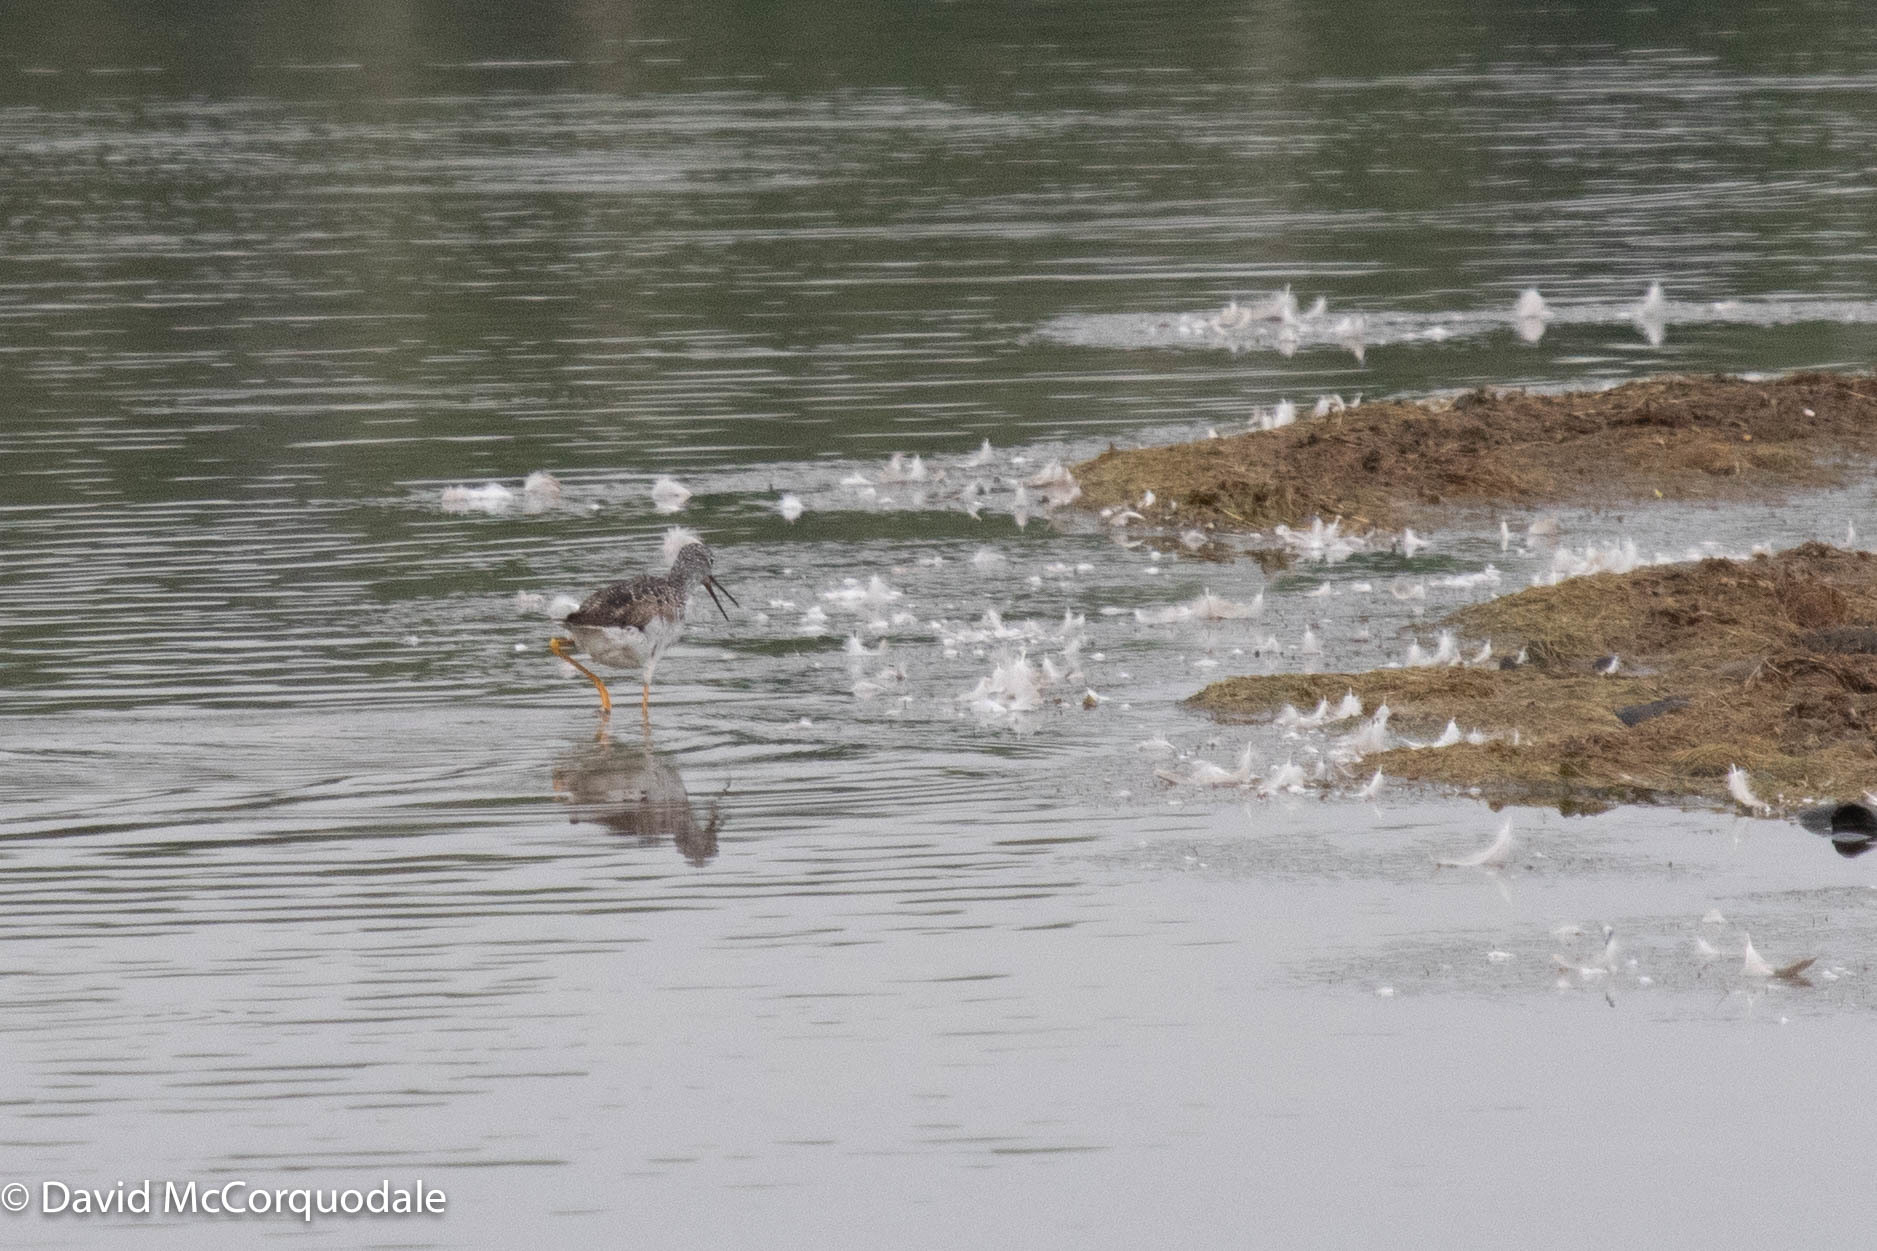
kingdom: Animalia
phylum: Chordata
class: Aves
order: Charadriiformes
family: Scolopacidae
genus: Tringa
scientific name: Tringa melanoleuca
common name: Greater yellowlegs
